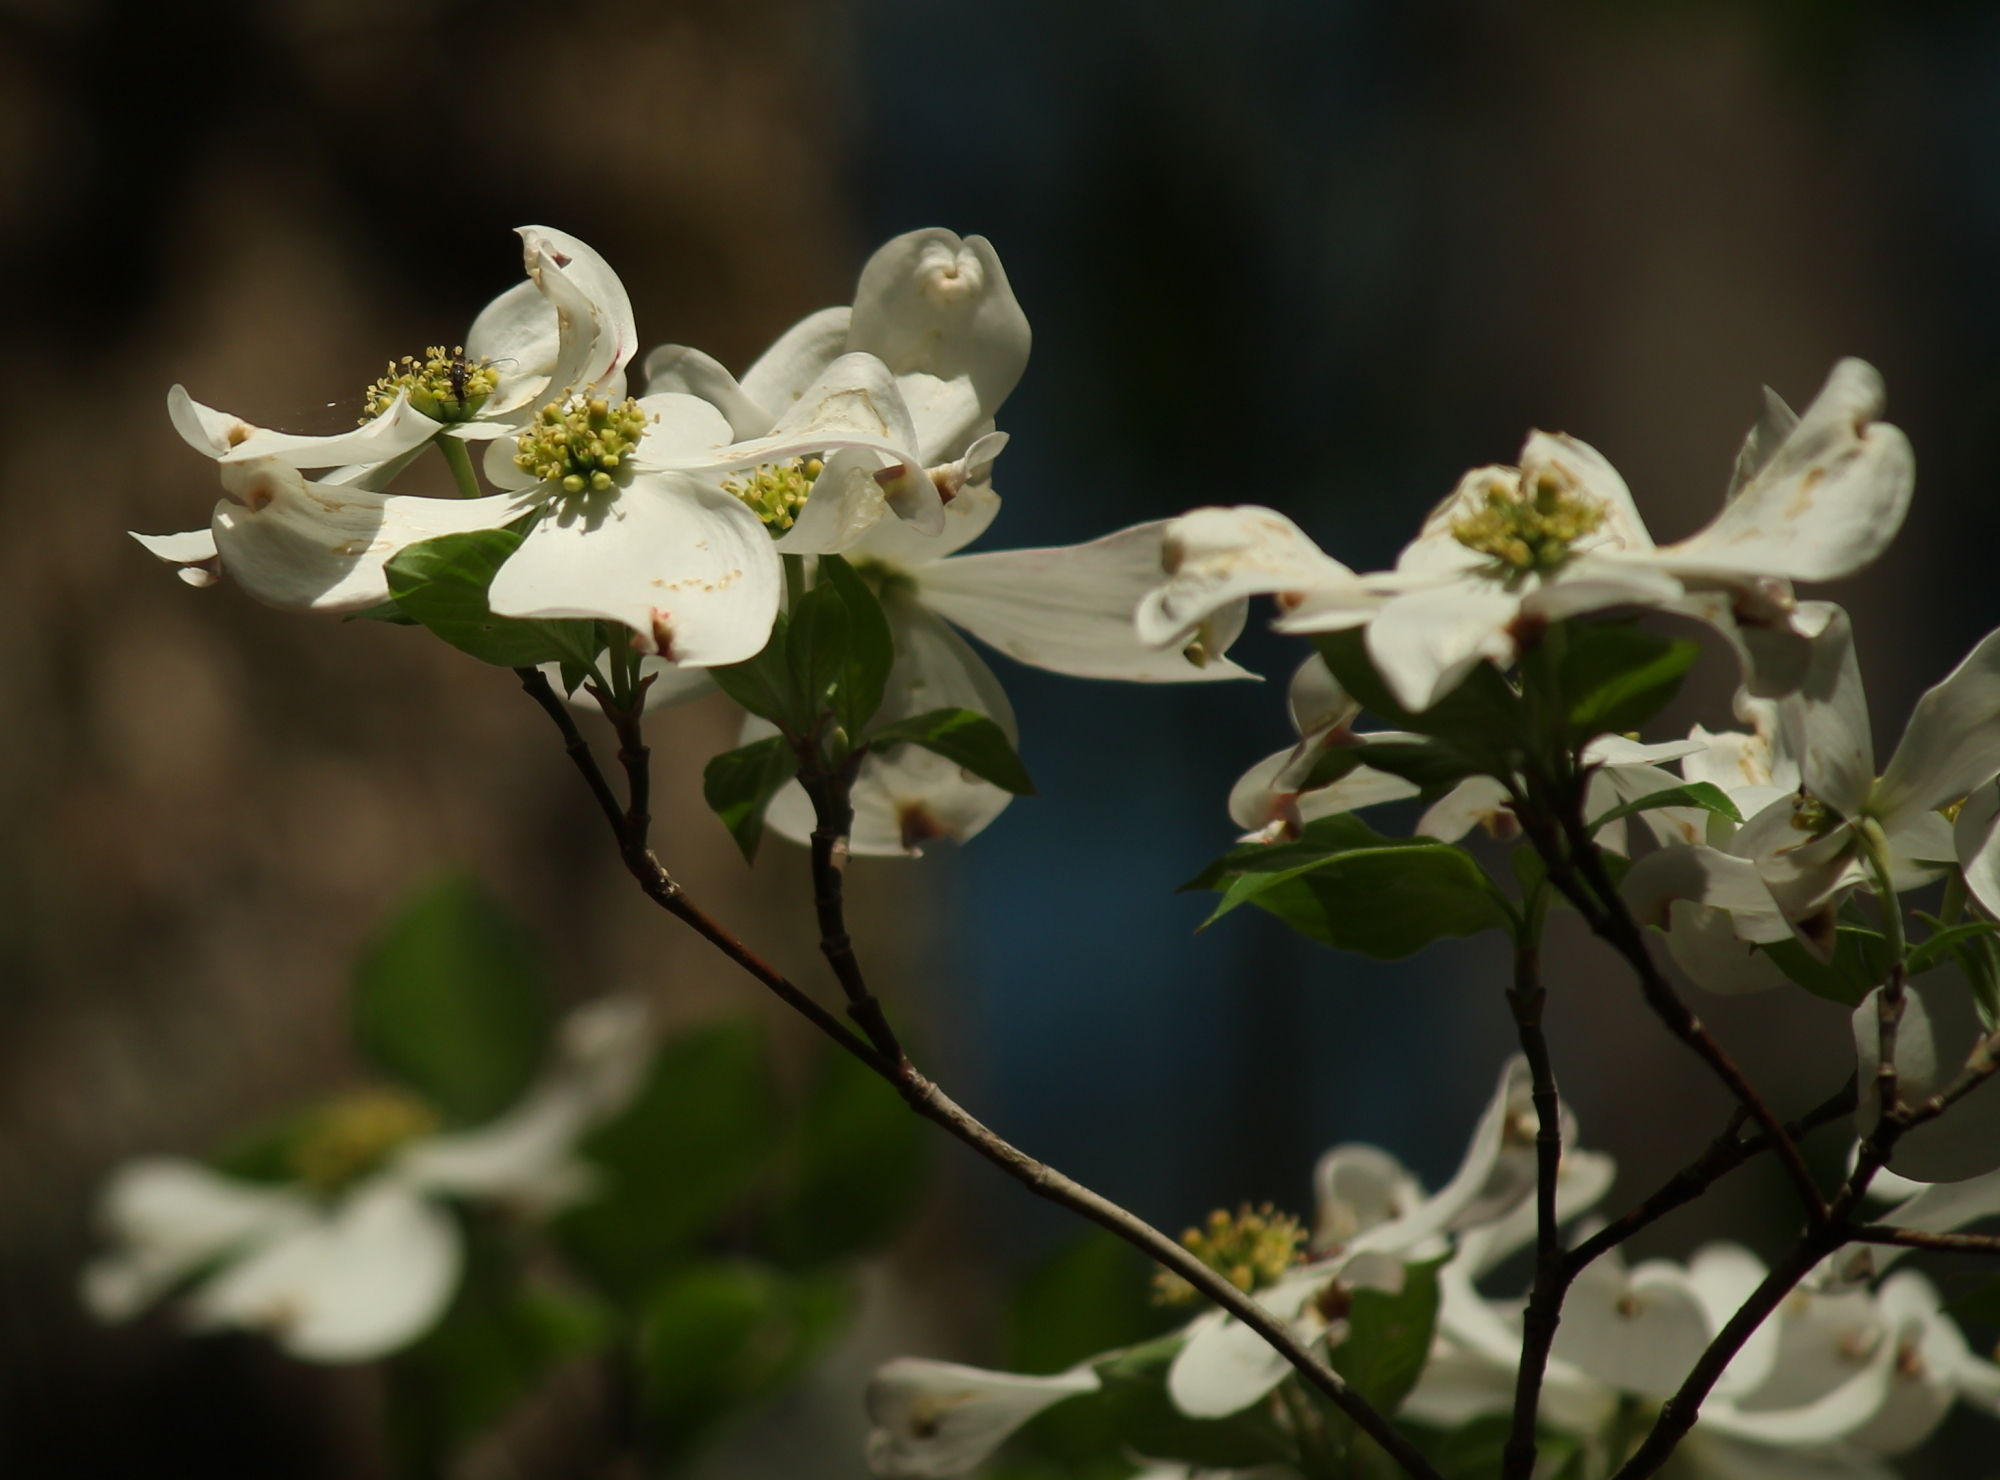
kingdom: Plantae
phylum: Tracheophyta
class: Magnoliopsida
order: Cornales
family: Cornaceae
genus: Cornus
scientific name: Cornus florida
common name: Flowering dogwood
